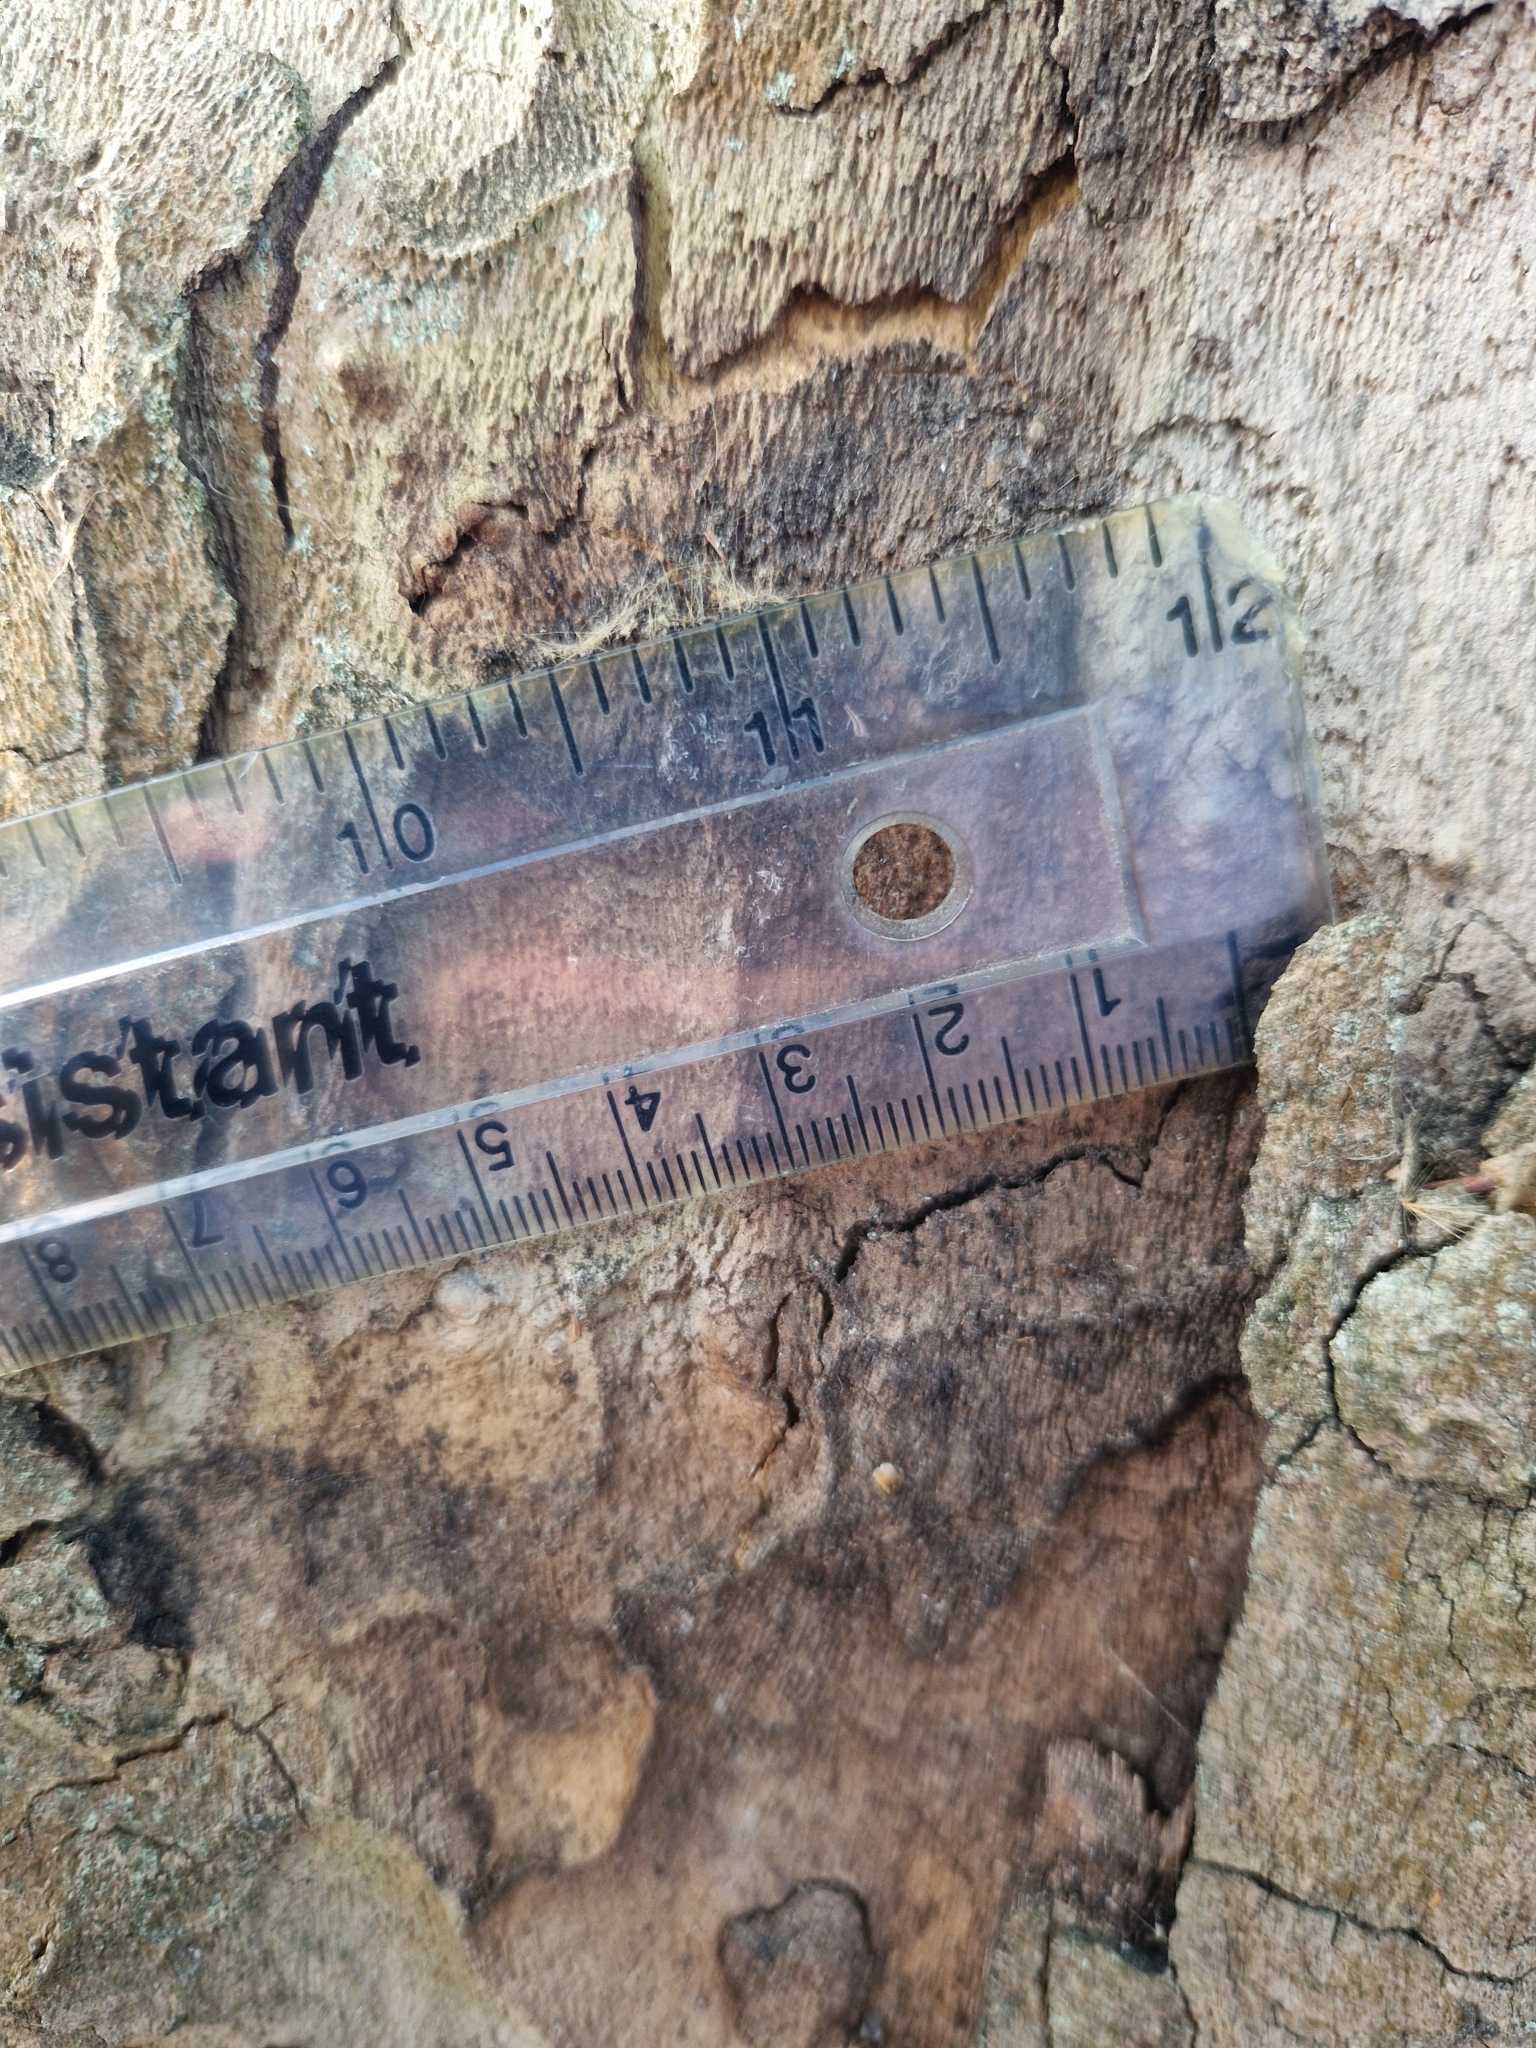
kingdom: Animalia
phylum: Arthropoda
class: Chilopoda
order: Geophilomorpha
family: Geophilidae
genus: Geophilus
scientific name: Geophilus carpophagus
